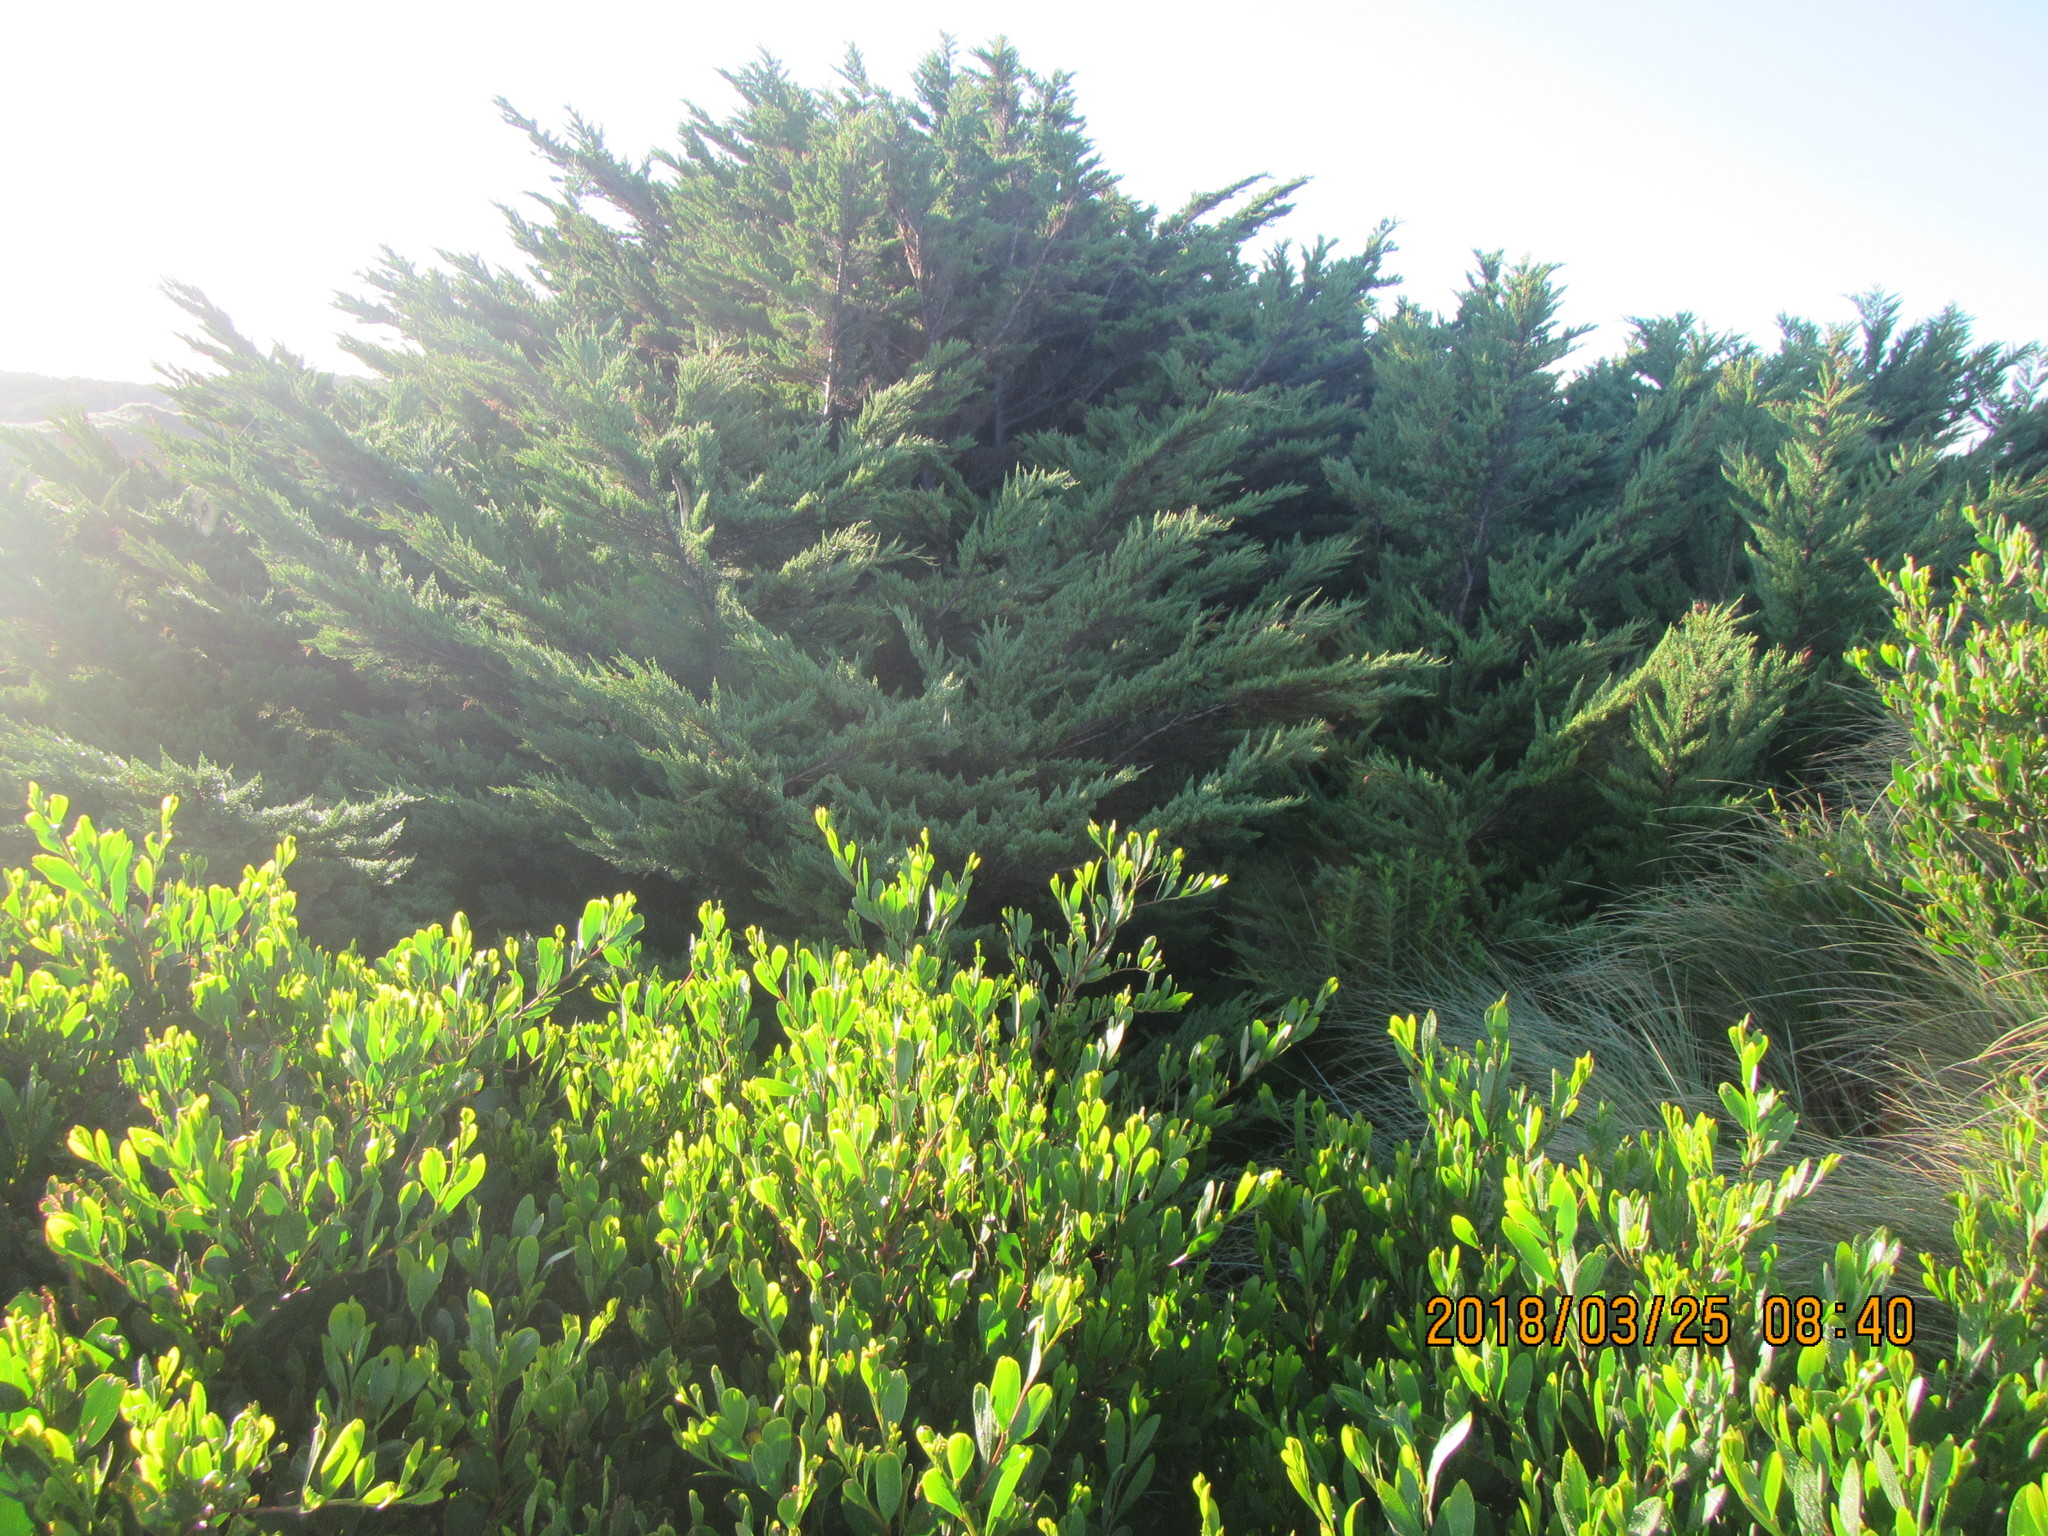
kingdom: Plantae
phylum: Tracheophyta
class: Magnoliopsida
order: Fabales
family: Fabaceae
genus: Acacia
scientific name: Acacia longifolia
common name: Sydney golden wattle
